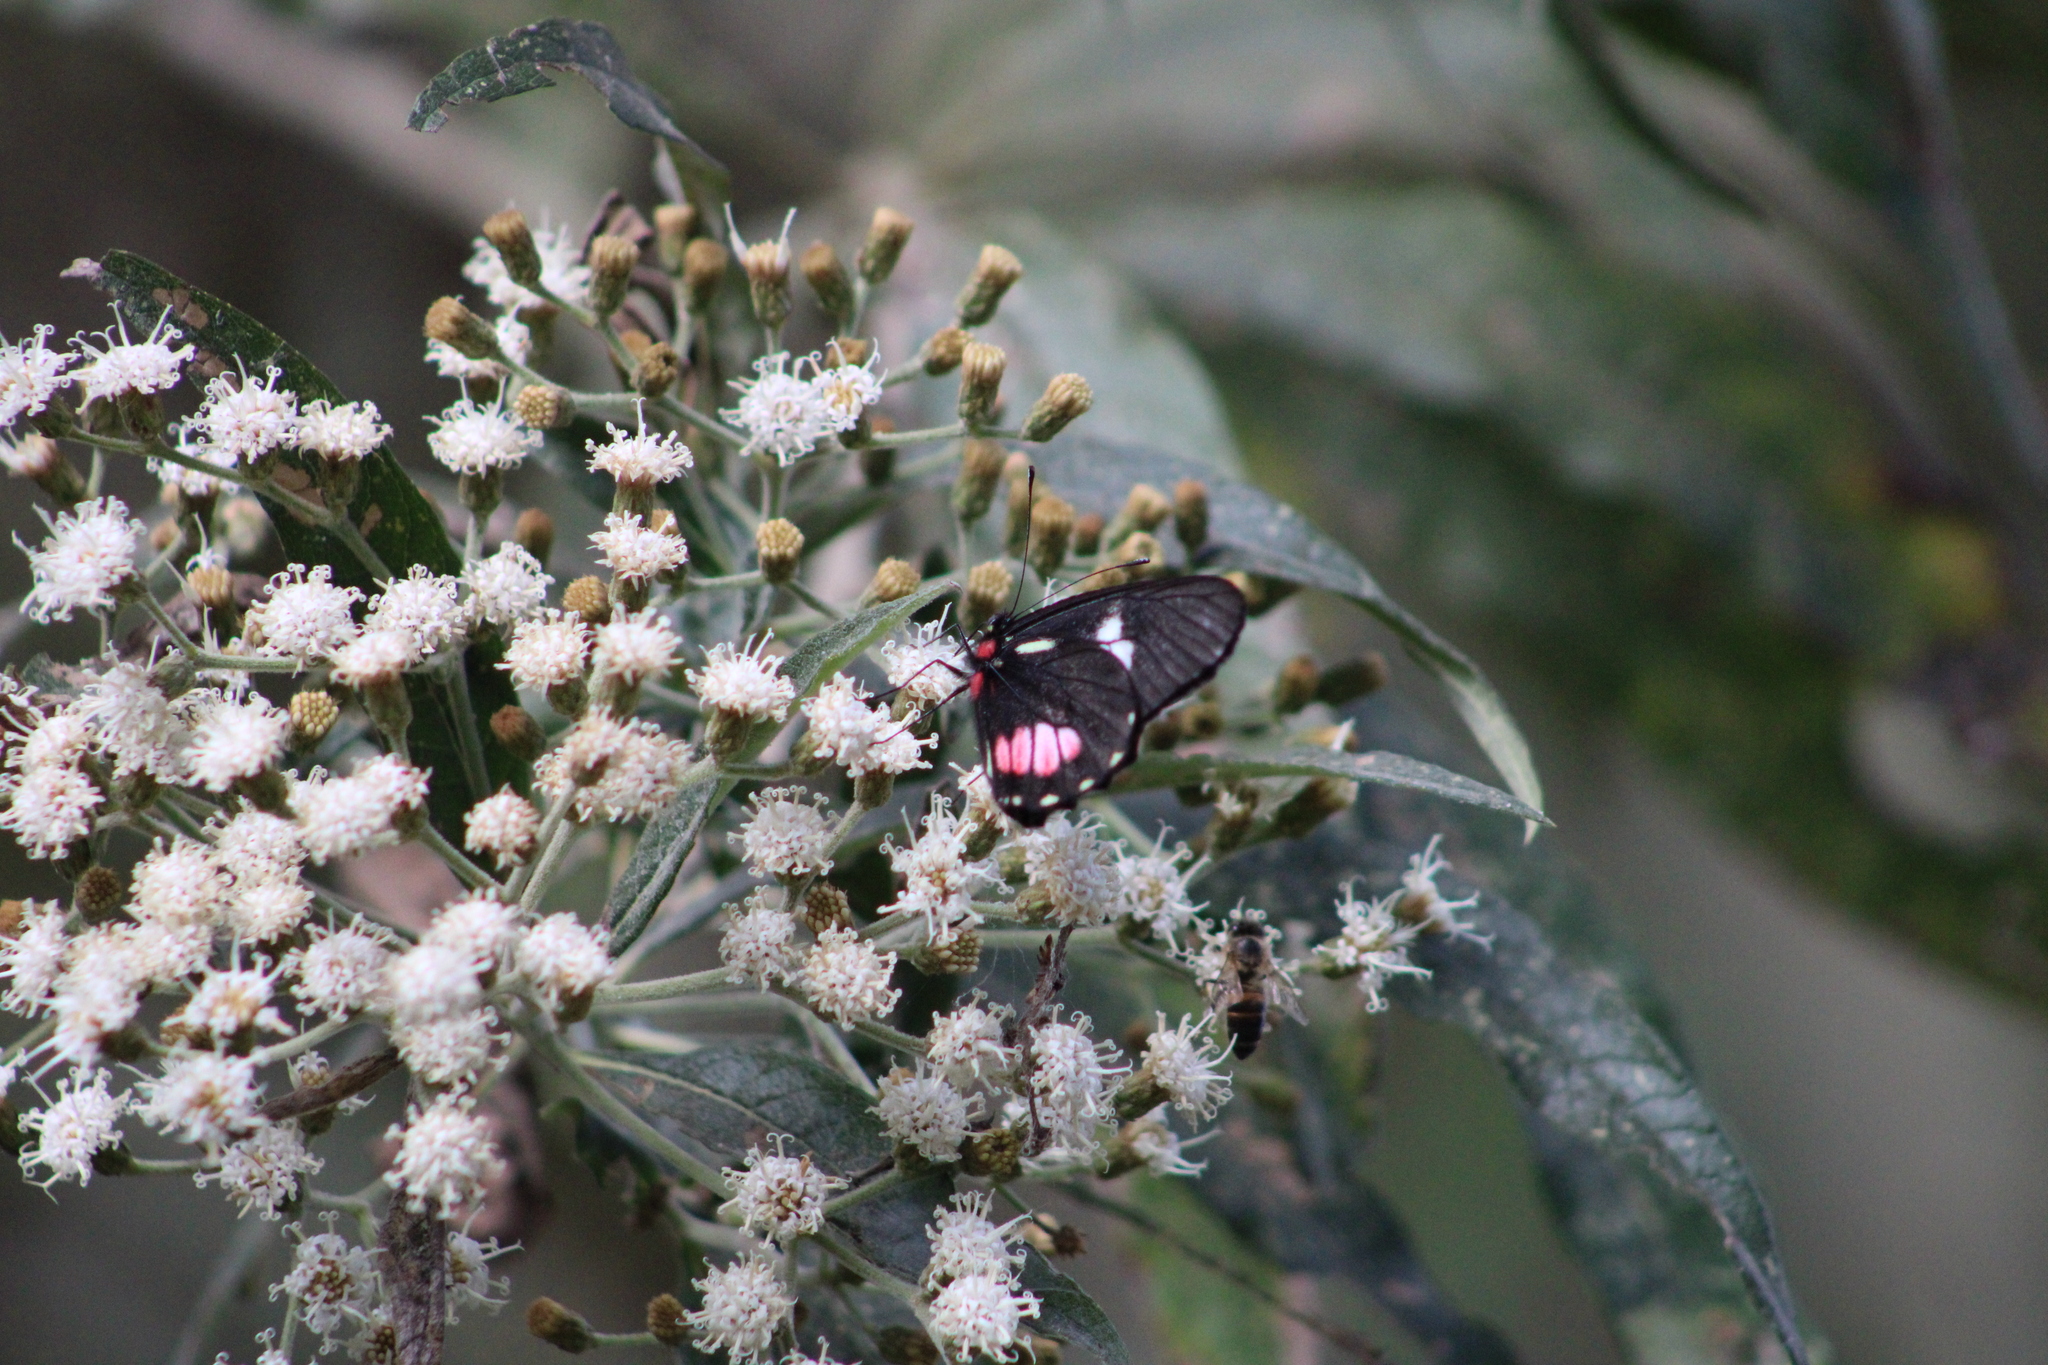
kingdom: Animalia
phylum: Arthropoda
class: Insecta
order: Lepidoptera
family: Pieridae
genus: Archonias
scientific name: Archonias brassolis
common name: Cattleheart white
